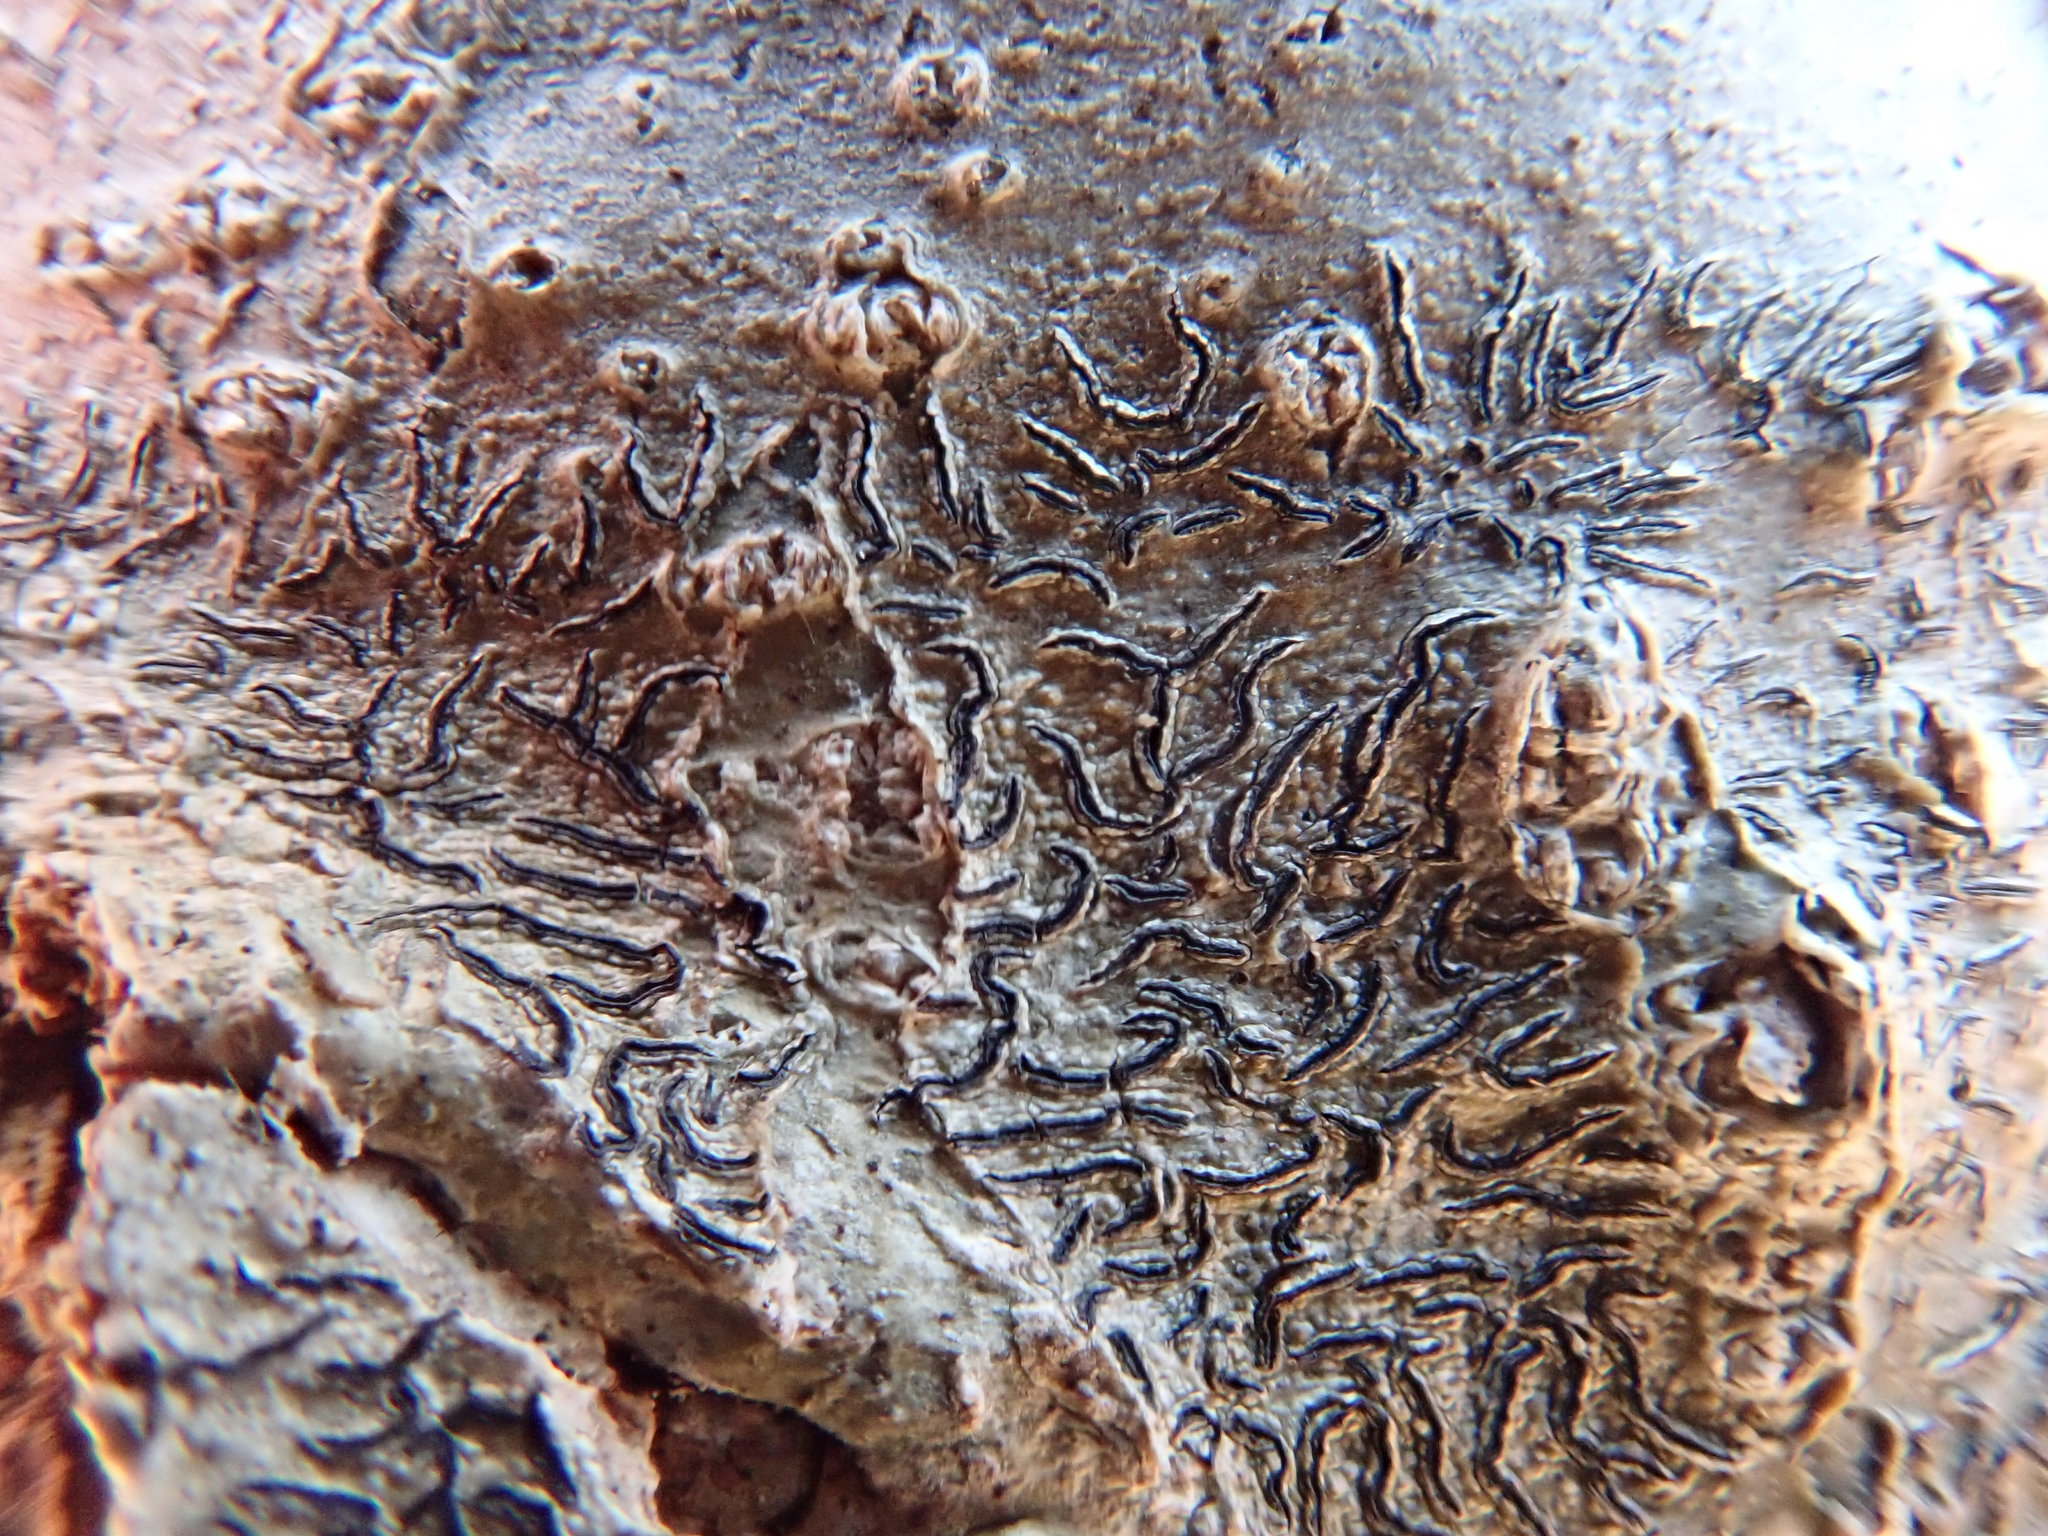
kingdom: Fungi
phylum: Ascomycota
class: Lecanoromycetes
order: Ostropales
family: Graphidaceae
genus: Graphis
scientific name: Graphis scripta
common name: Script lichen
